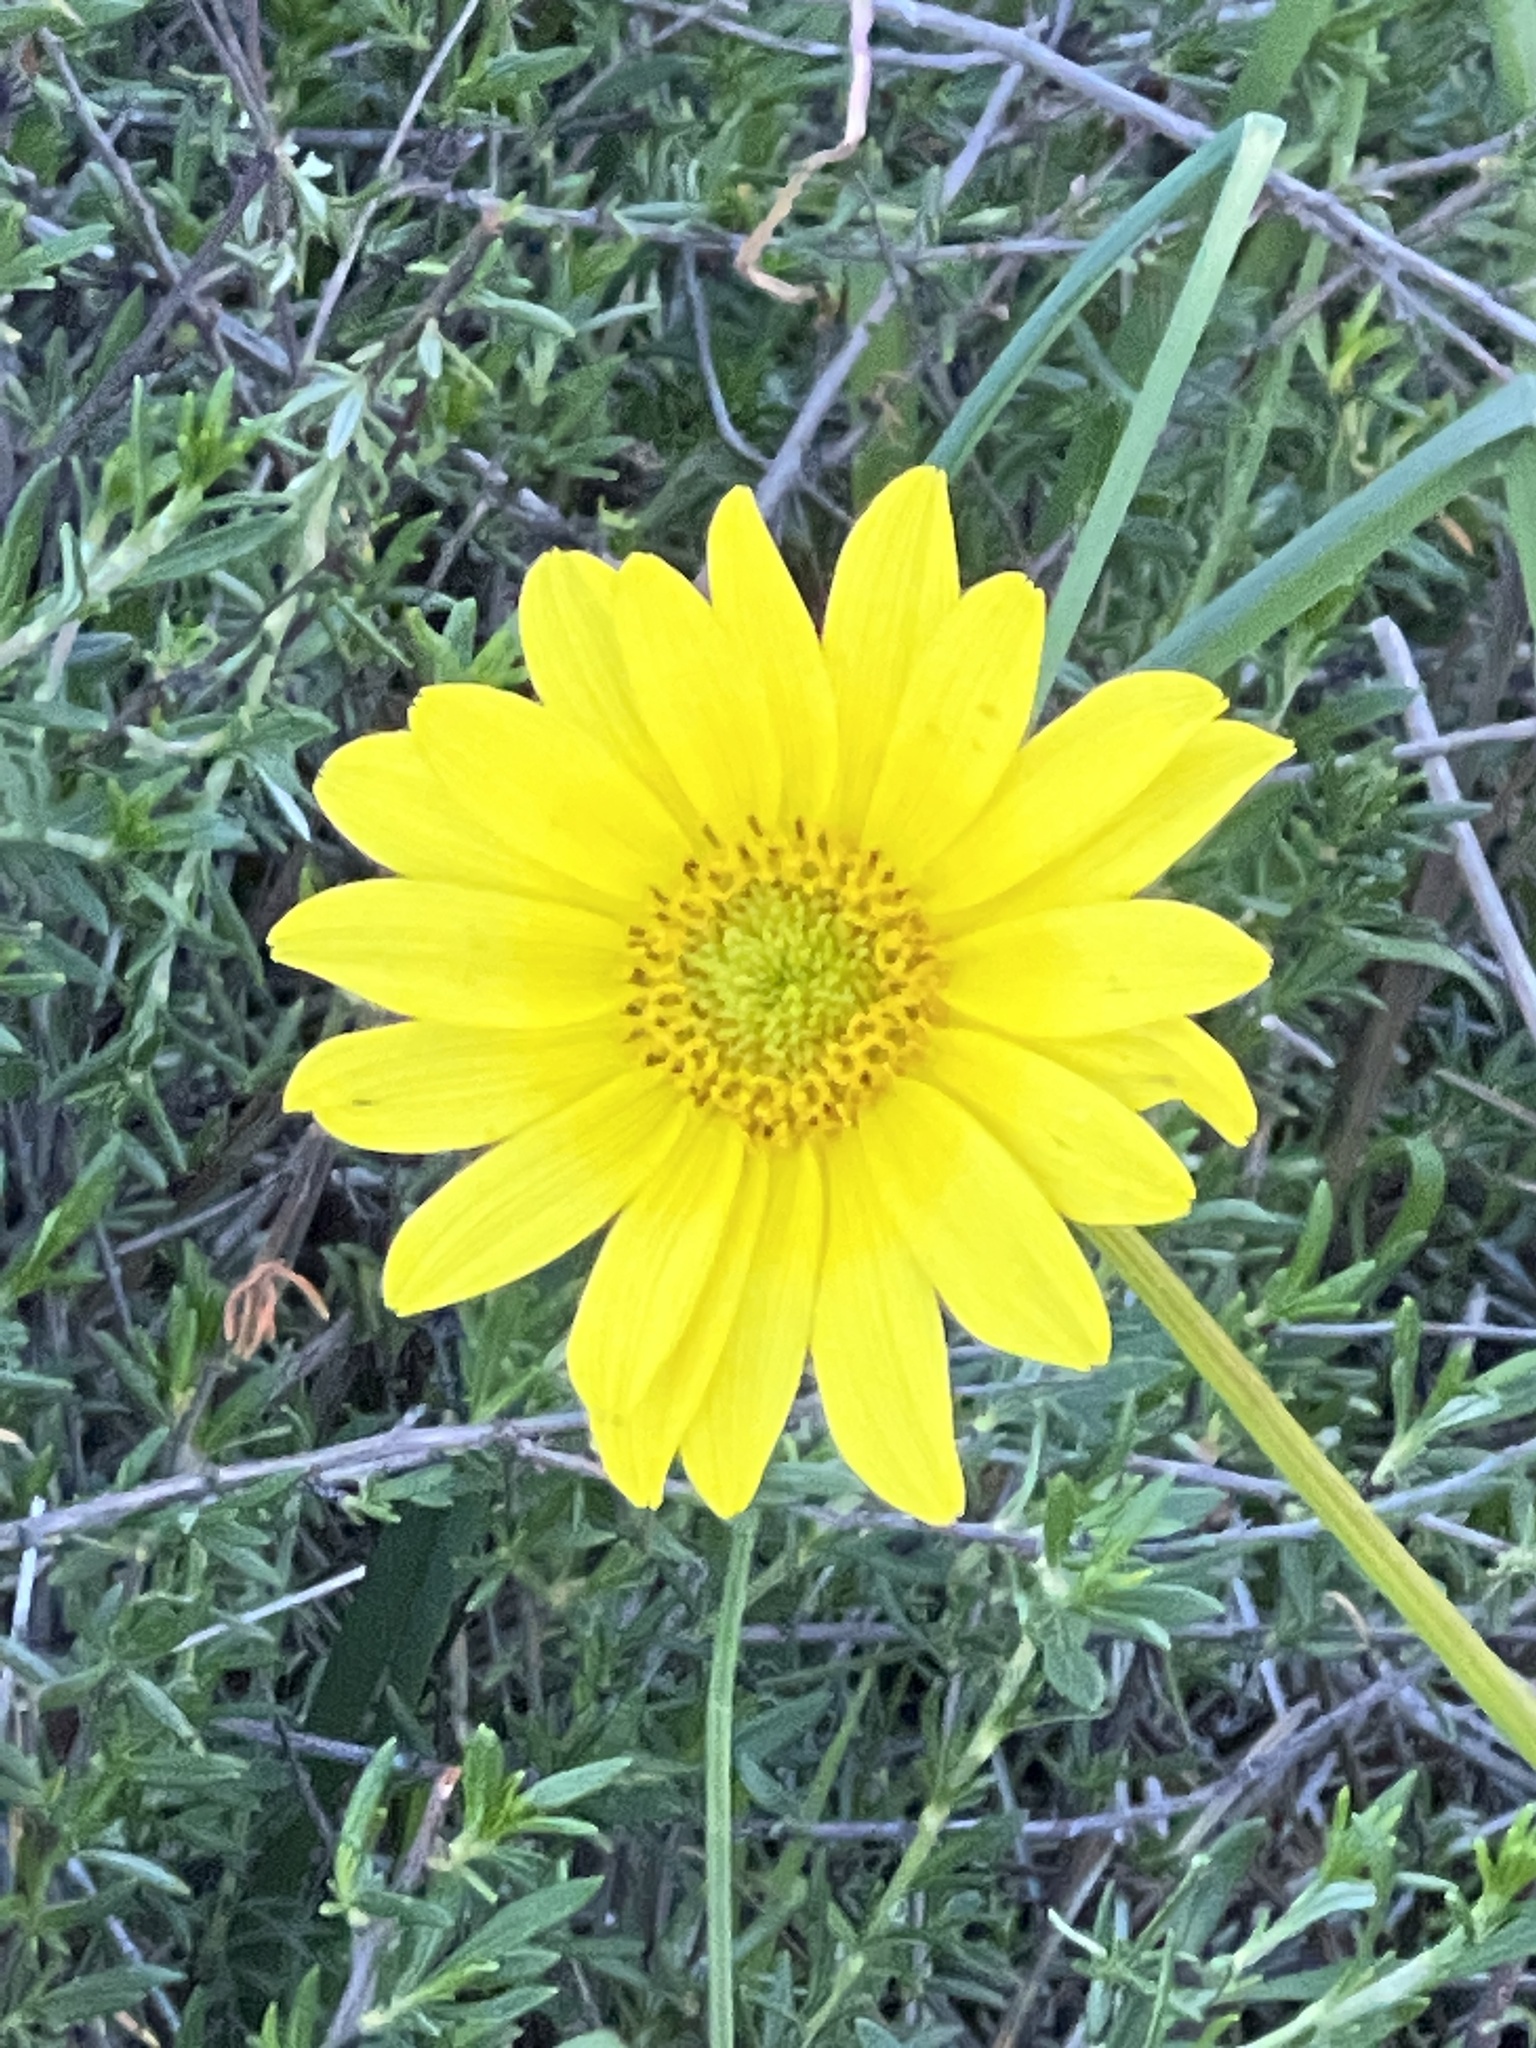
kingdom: Plantae
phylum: Tracheophyta
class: Magnoliopsida
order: Asterales
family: Asteraceae
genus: Coreopsis
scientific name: Coreopsis maritima
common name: Sea-dahlia
